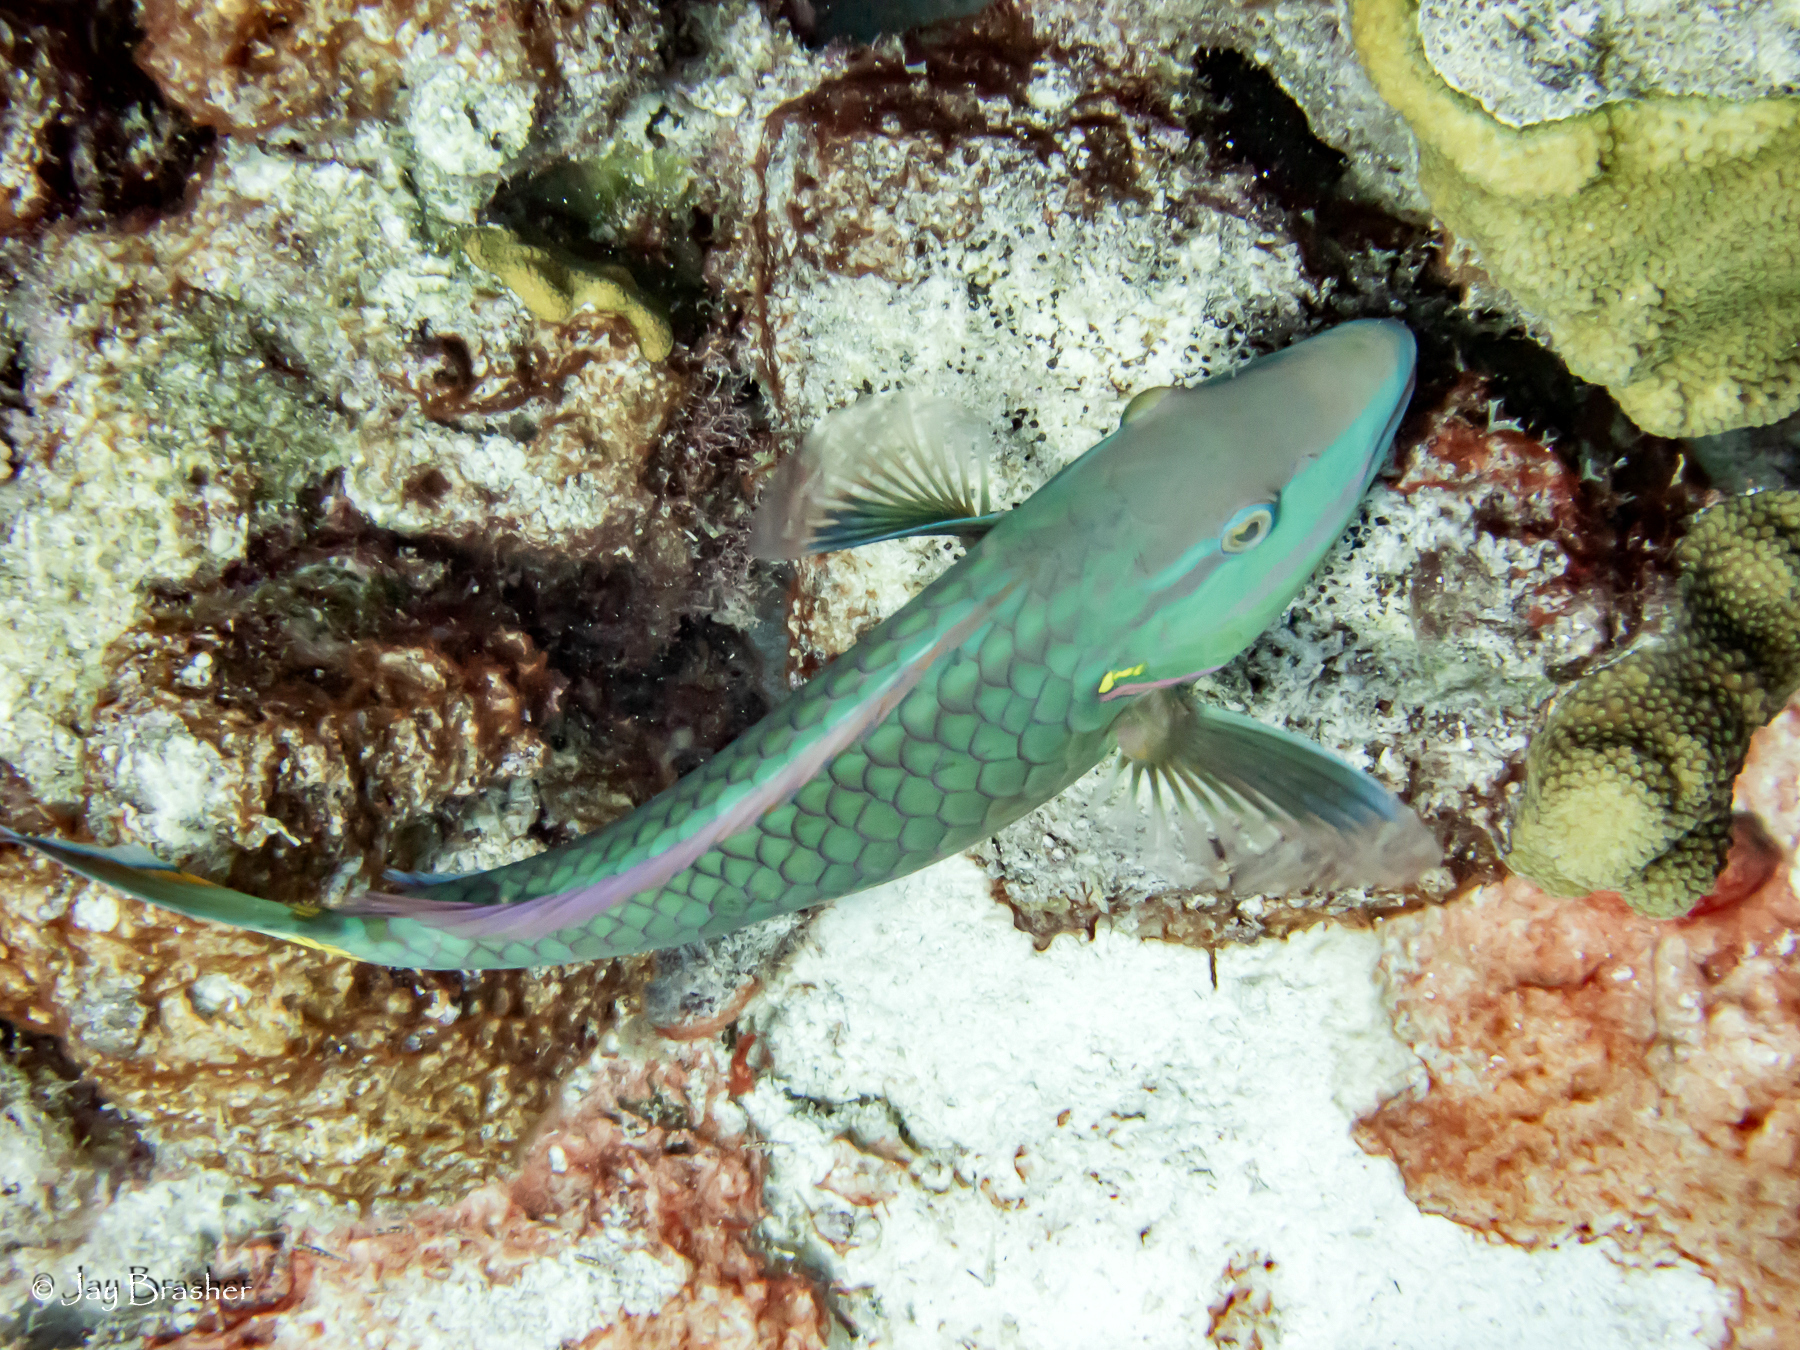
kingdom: Animalia
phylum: Chordata
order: Perciformes
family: Scaridae
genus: Sparisoma
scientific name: Sparisoma viride
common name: Stoplight parrotfish
